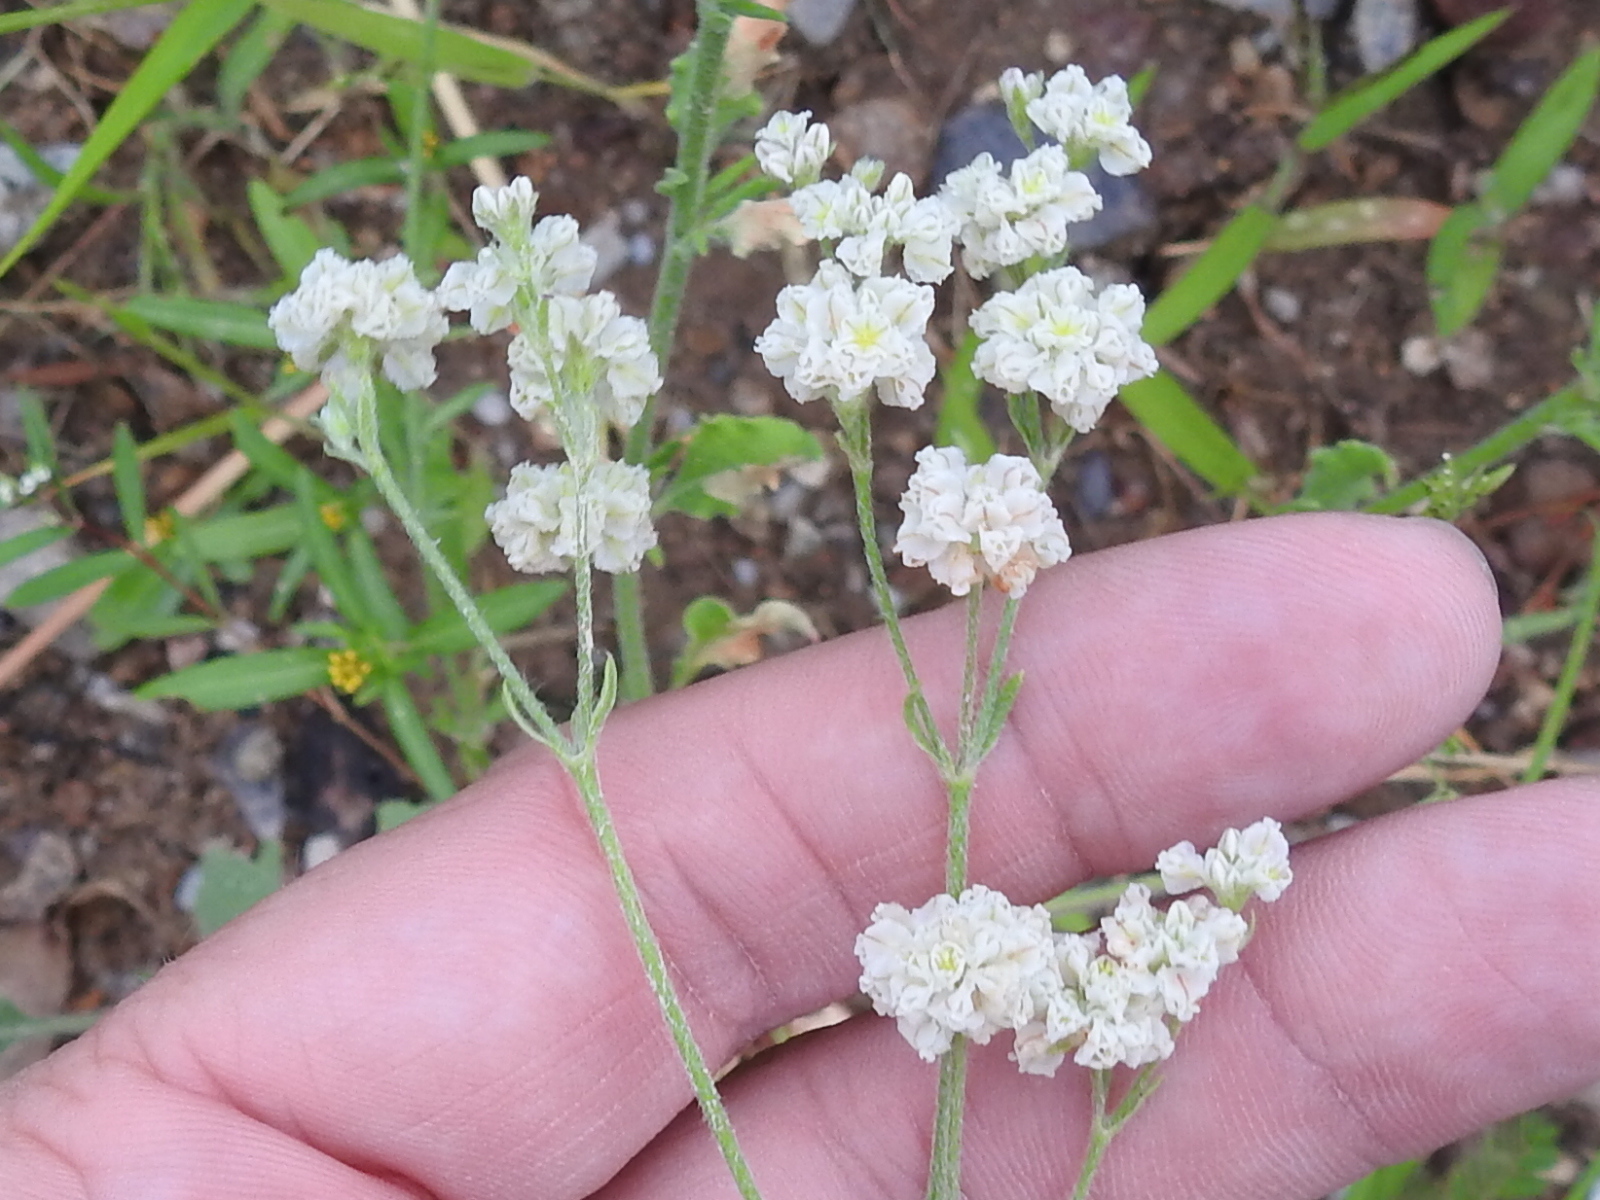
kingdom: Plantae
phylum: Tracheophyta
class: Magnoliopsida
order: Caryophyllales
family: Polygonaceae
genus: Eriogonum
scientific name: Eriogonum abertianum
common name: Abert's wild buckwheat
